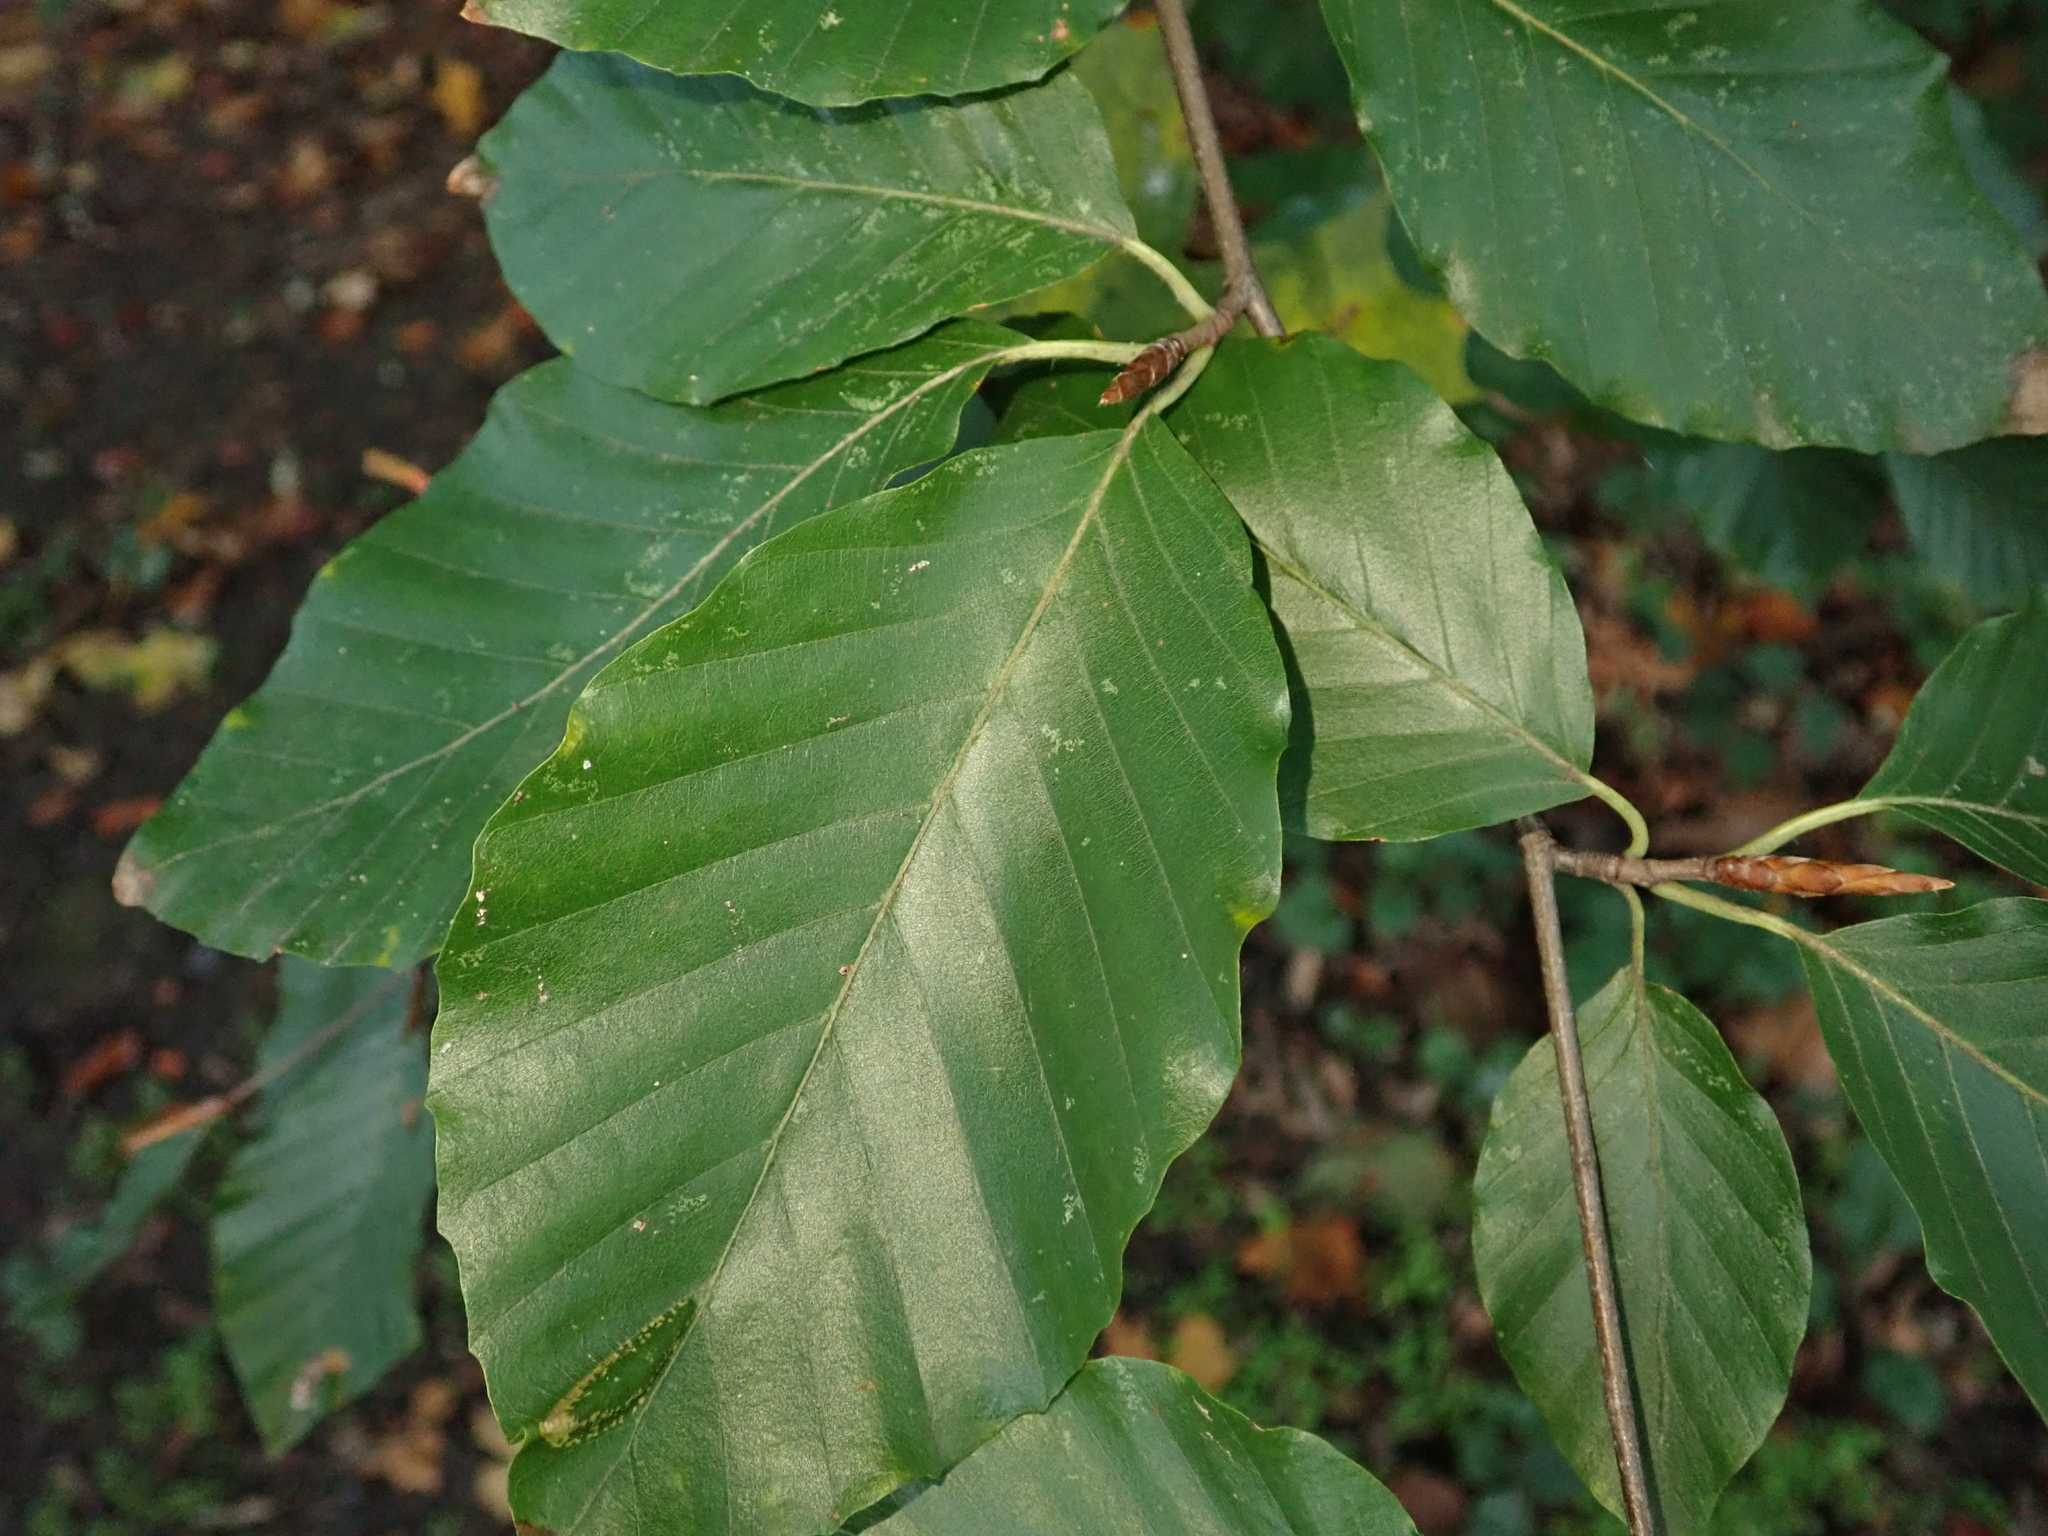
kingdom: Plantae
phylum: Tracheophyta
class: Magnoliopsida
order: Fagales
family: Fagaceae
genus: Fagus
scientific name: Fagus sylvatica
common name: Beech
